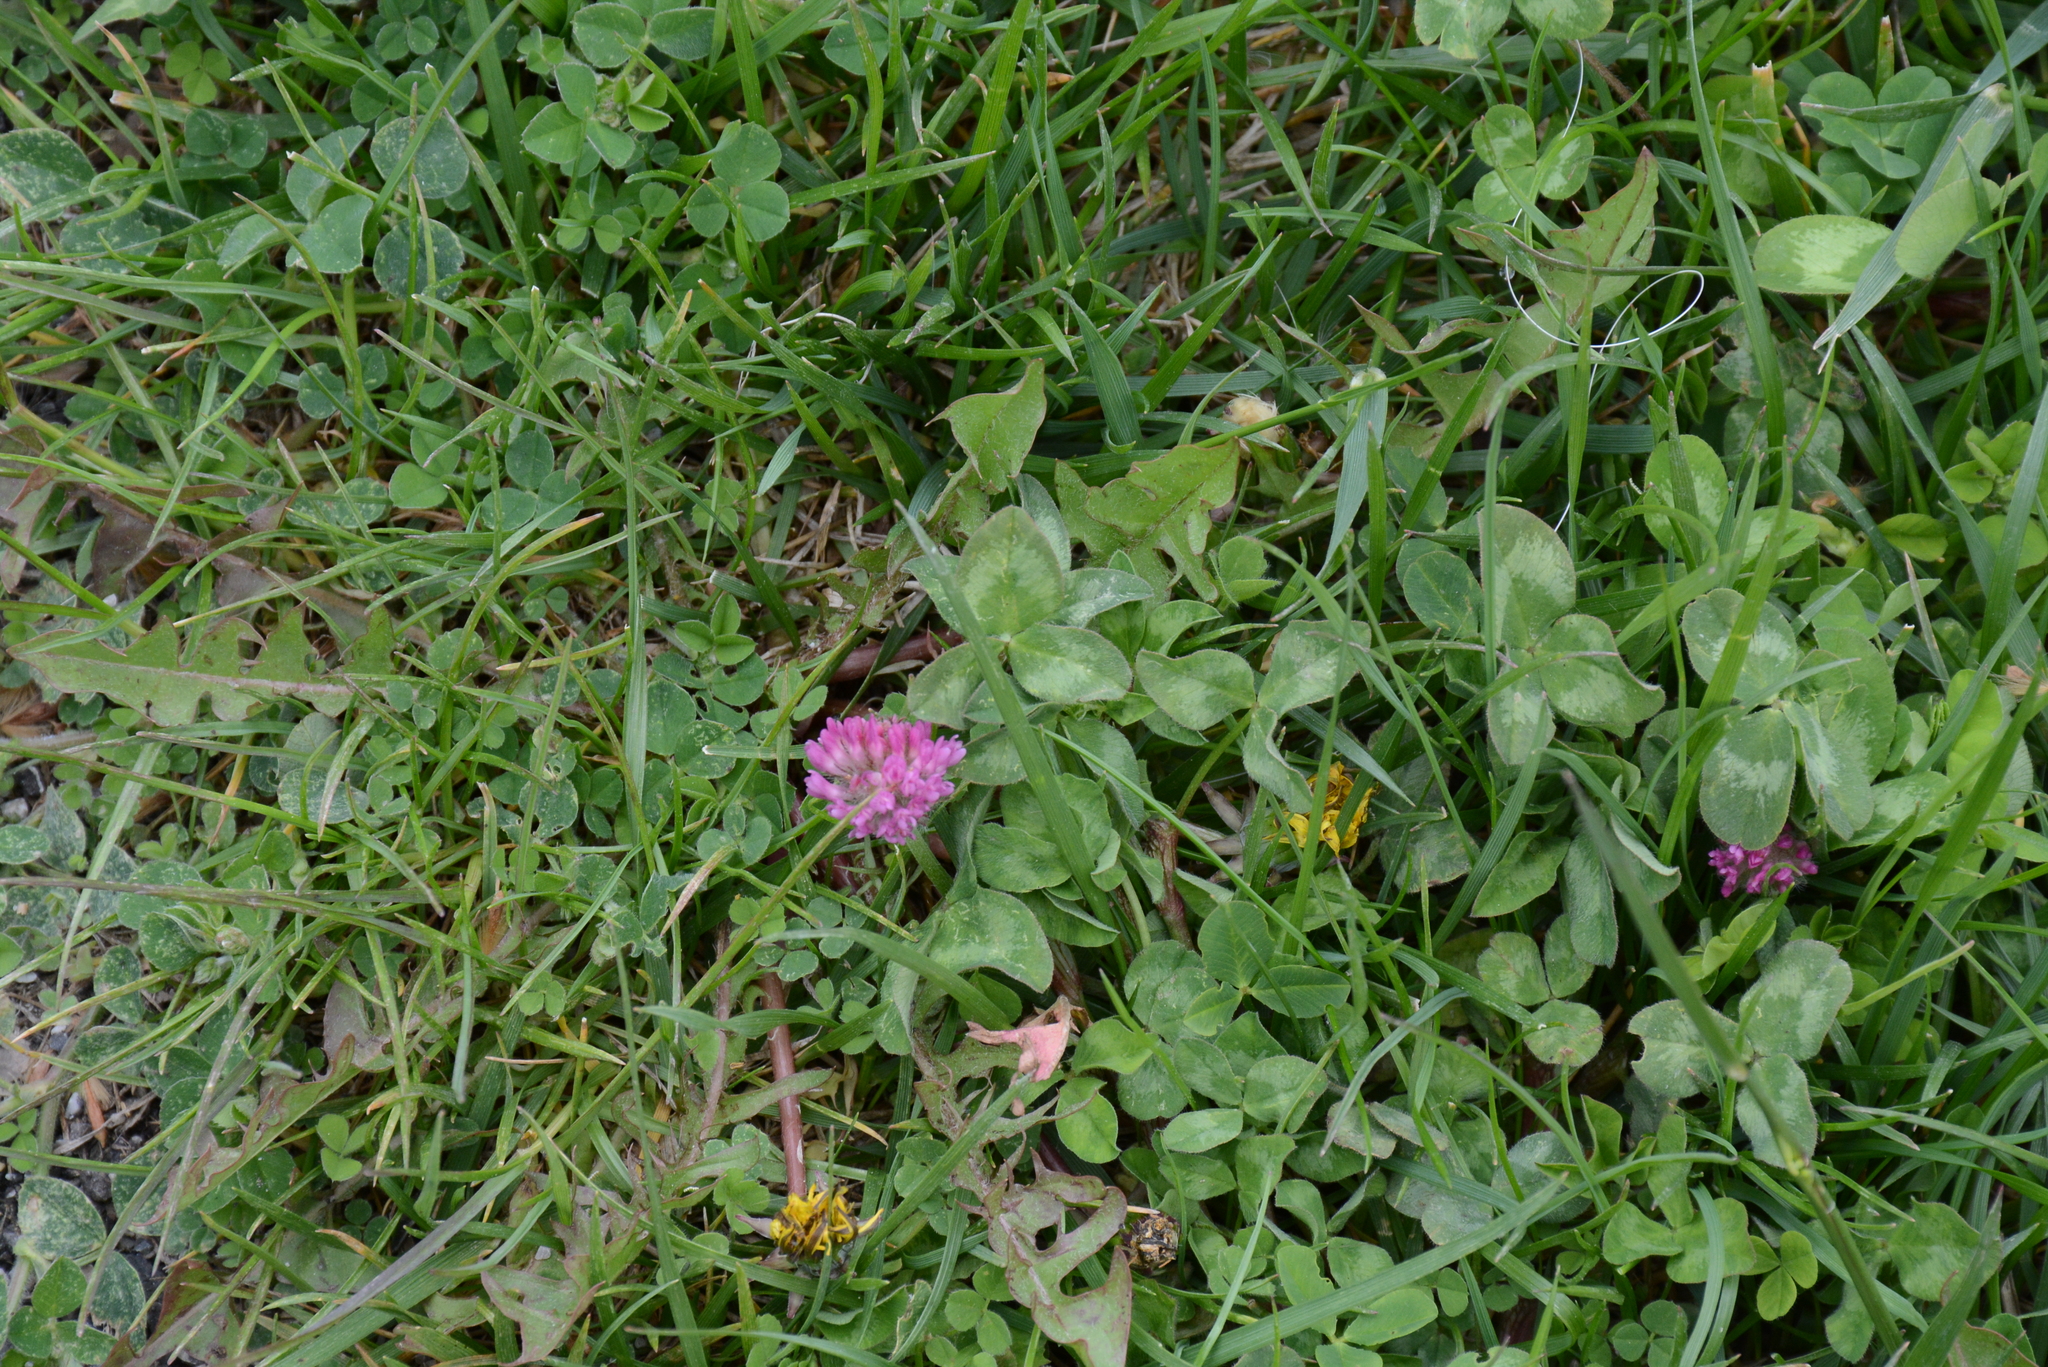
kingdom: Plantae
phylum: Tracheophyta
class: Magnoliopsida
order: Fabales
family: Fabaceae
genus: Trifolium
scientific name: Trifolium pratense
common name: Red clover
